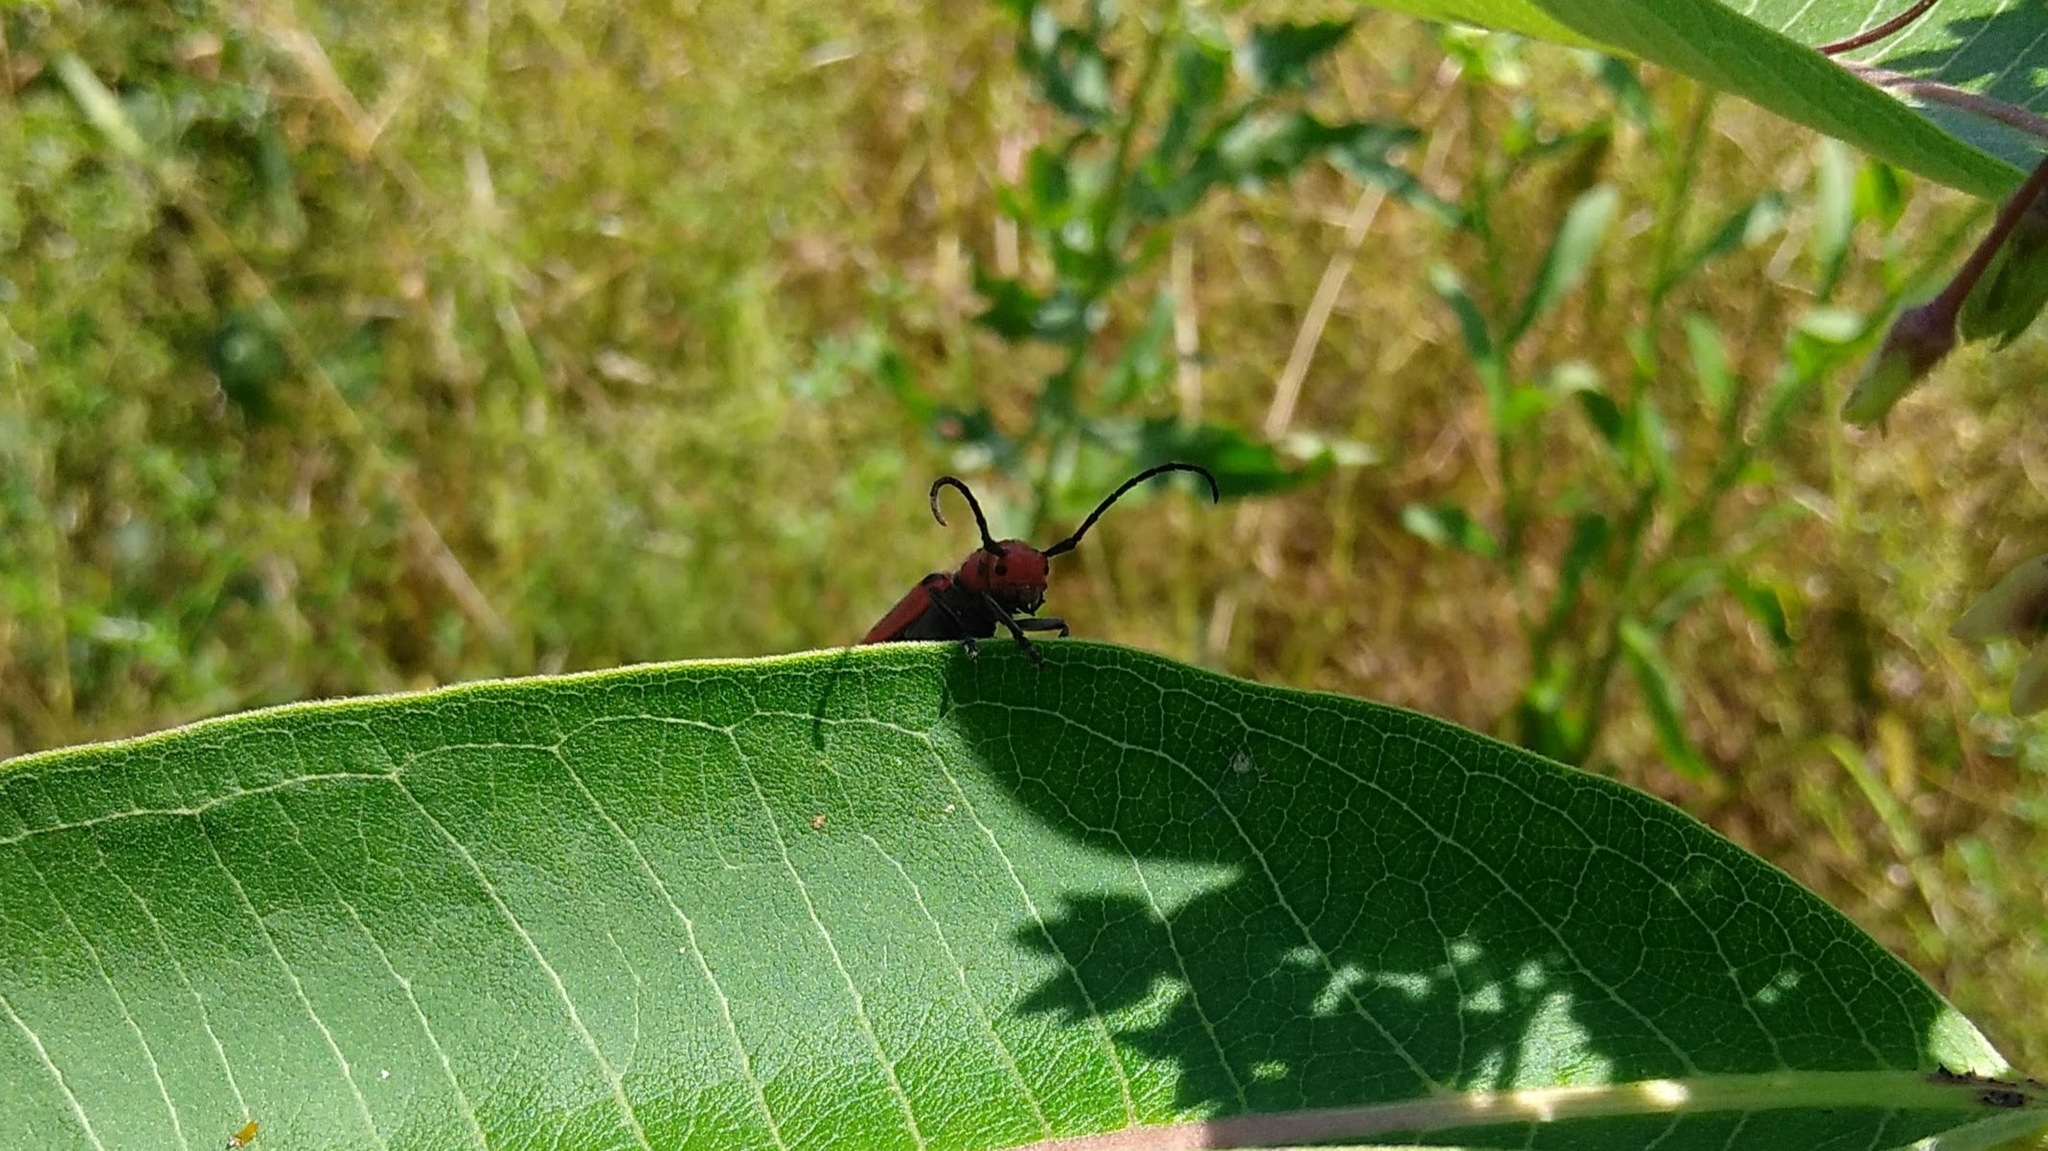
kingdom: Animalia
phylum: Arthropoda
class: Insecta
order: Coleoptera
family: Cerambycidae
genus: Tetraopes
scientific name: Tetraopes tetrophthalmus
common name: Red milkweed beetle
